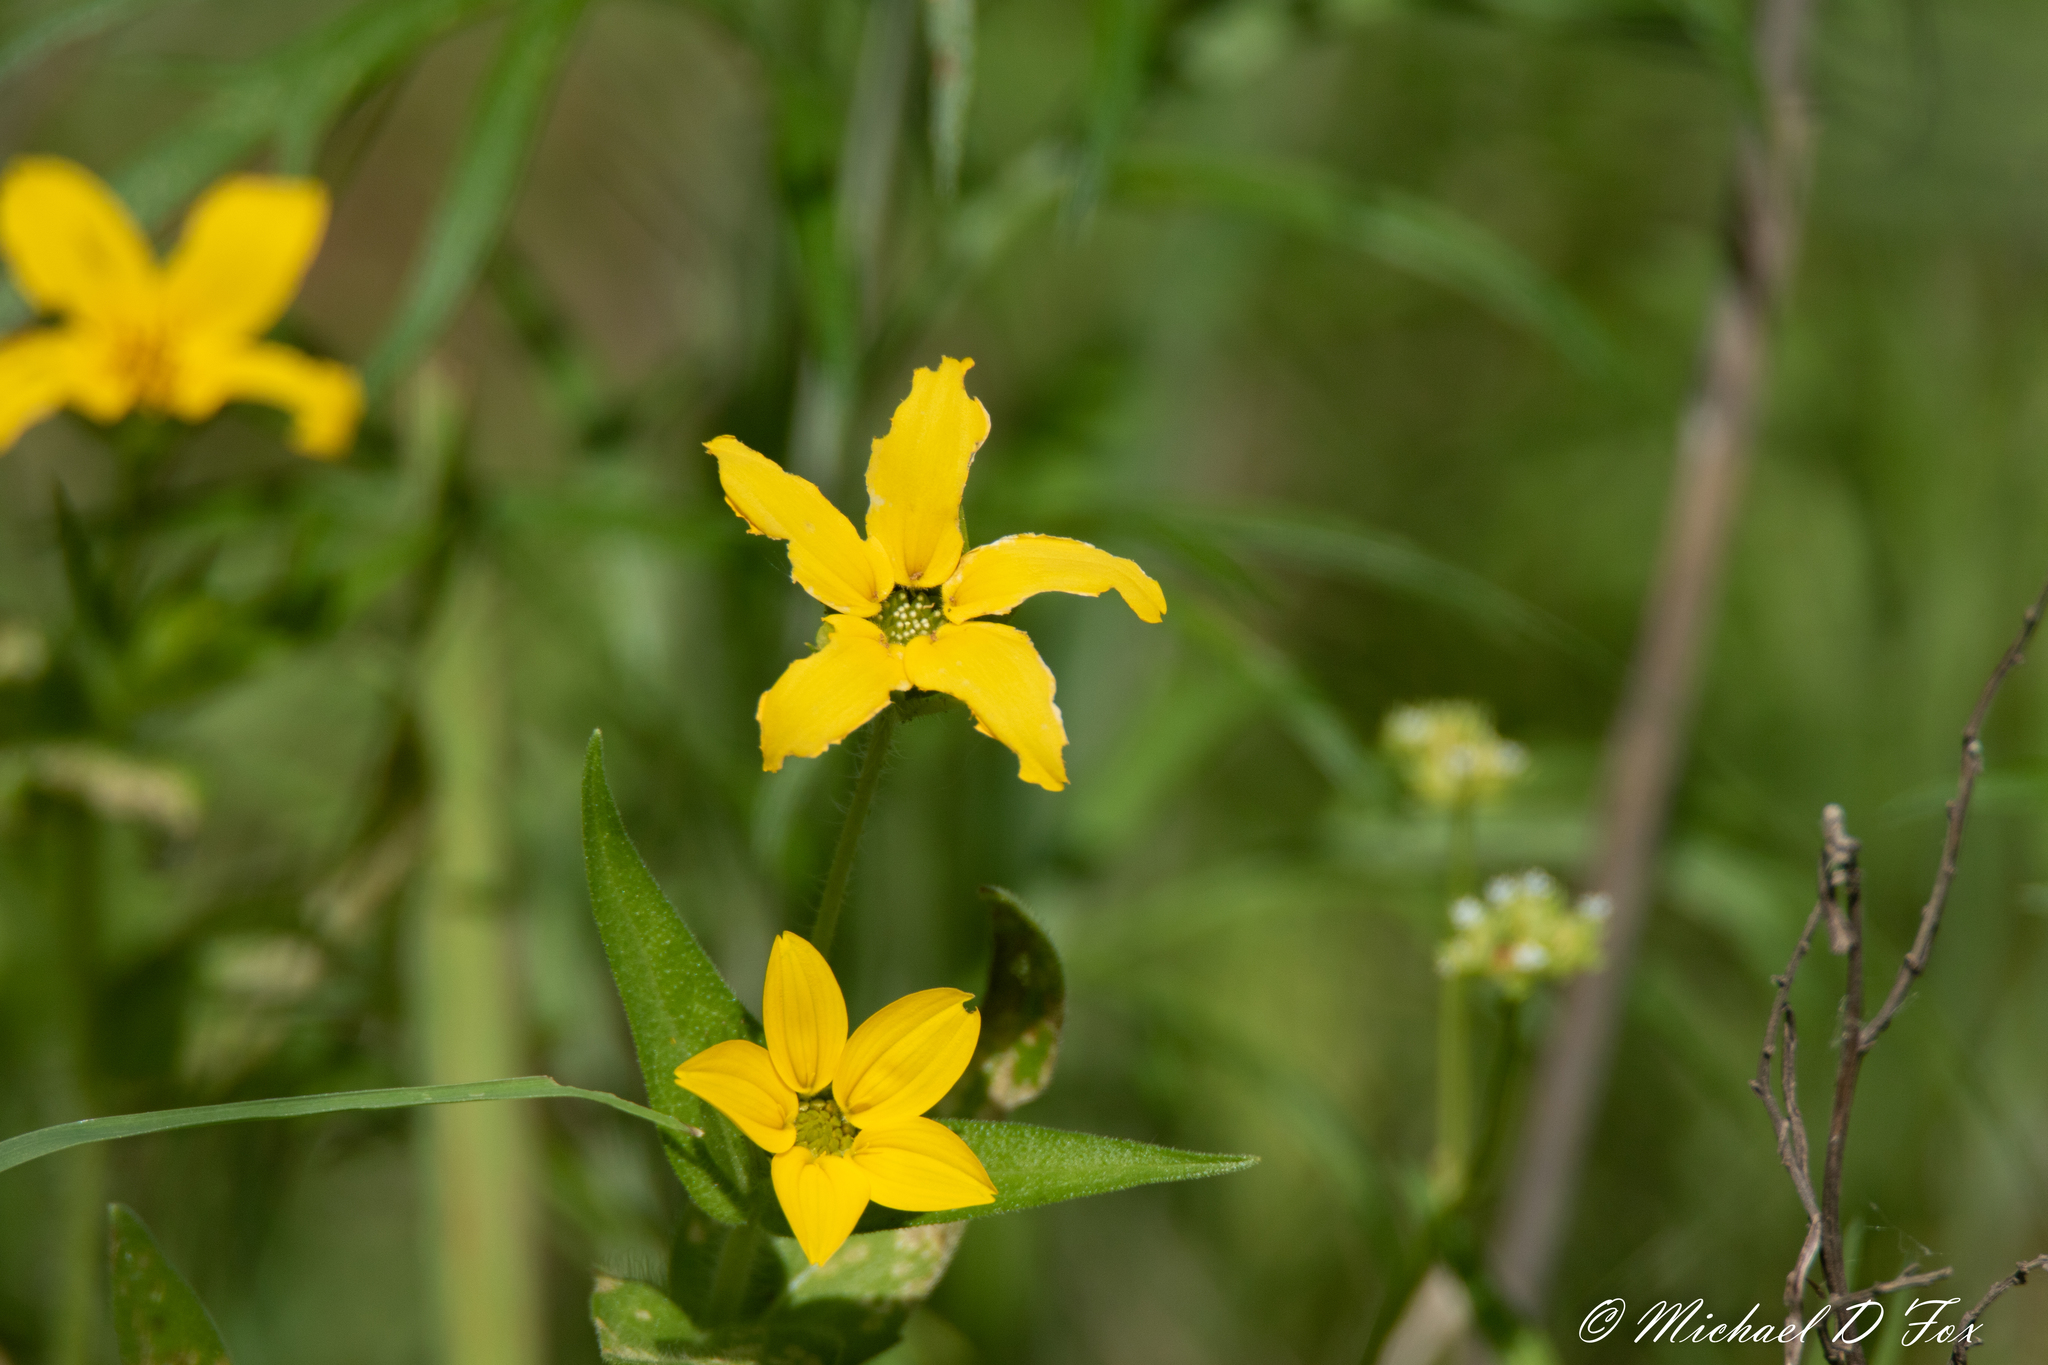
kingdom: Plantae
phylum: Tracheophyta
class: Magnoliopsida
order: Asterales
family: Asteraceae
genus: Lindheimera
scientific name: Lindheimera texana
